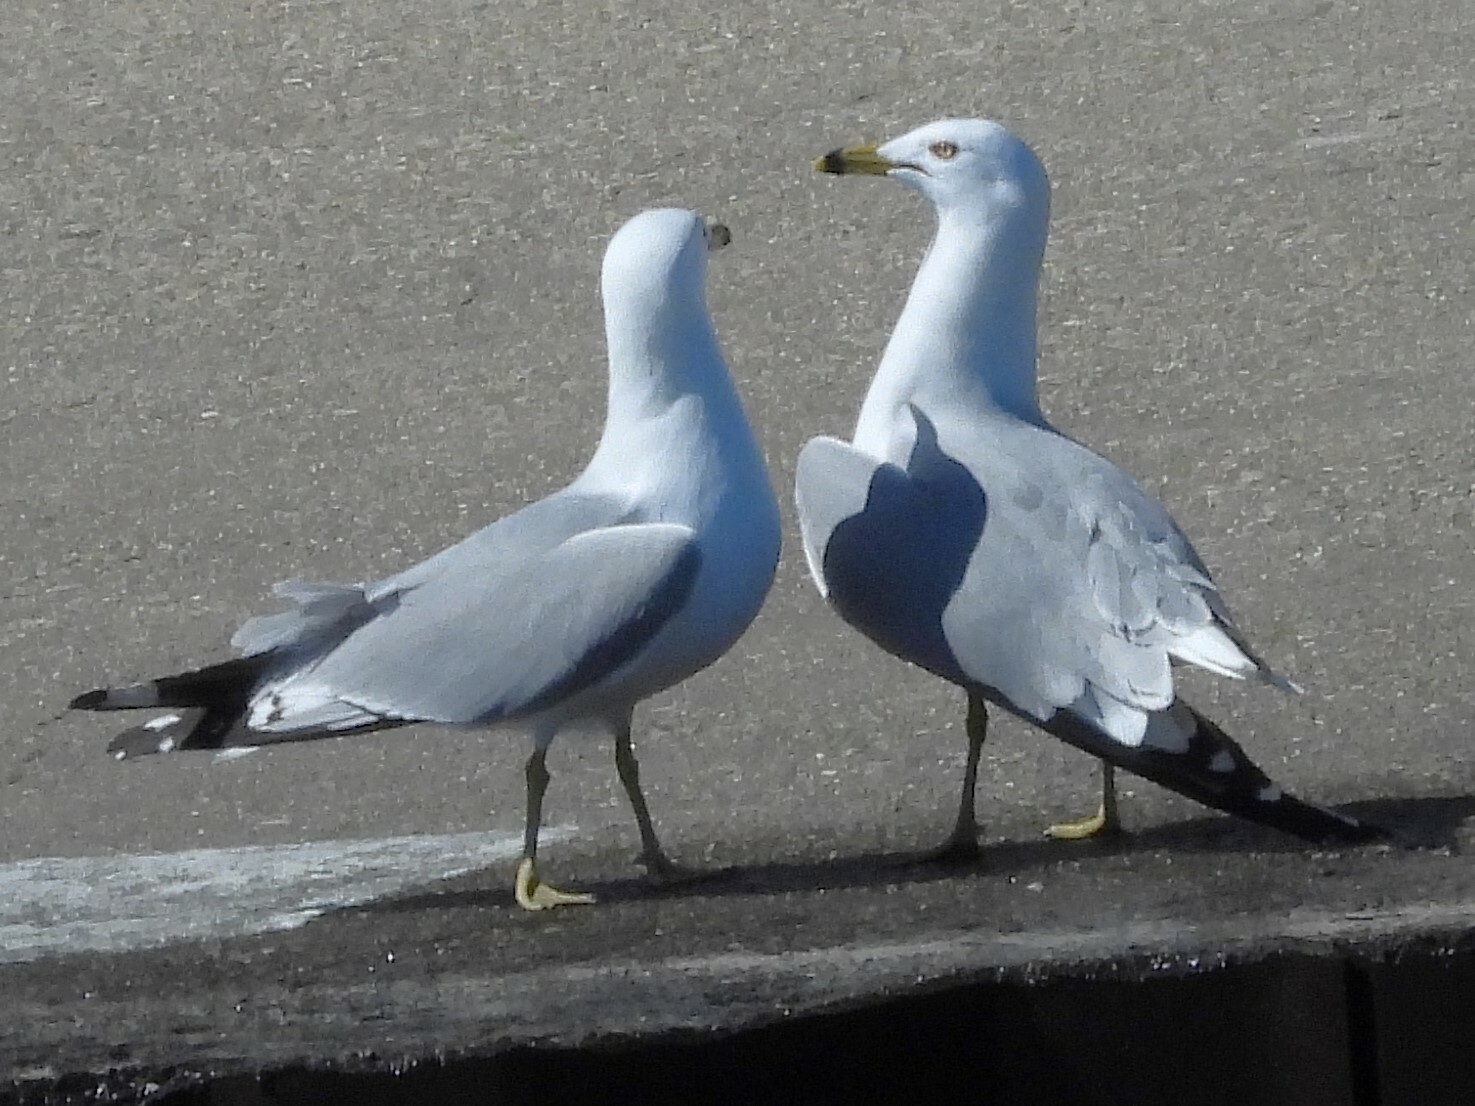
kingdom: Animalia
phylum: Chordata
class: Aves
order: Charadriiformes
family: Laridae
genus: Larus
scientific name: Larus delawarensis
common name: Ring-billed gull
